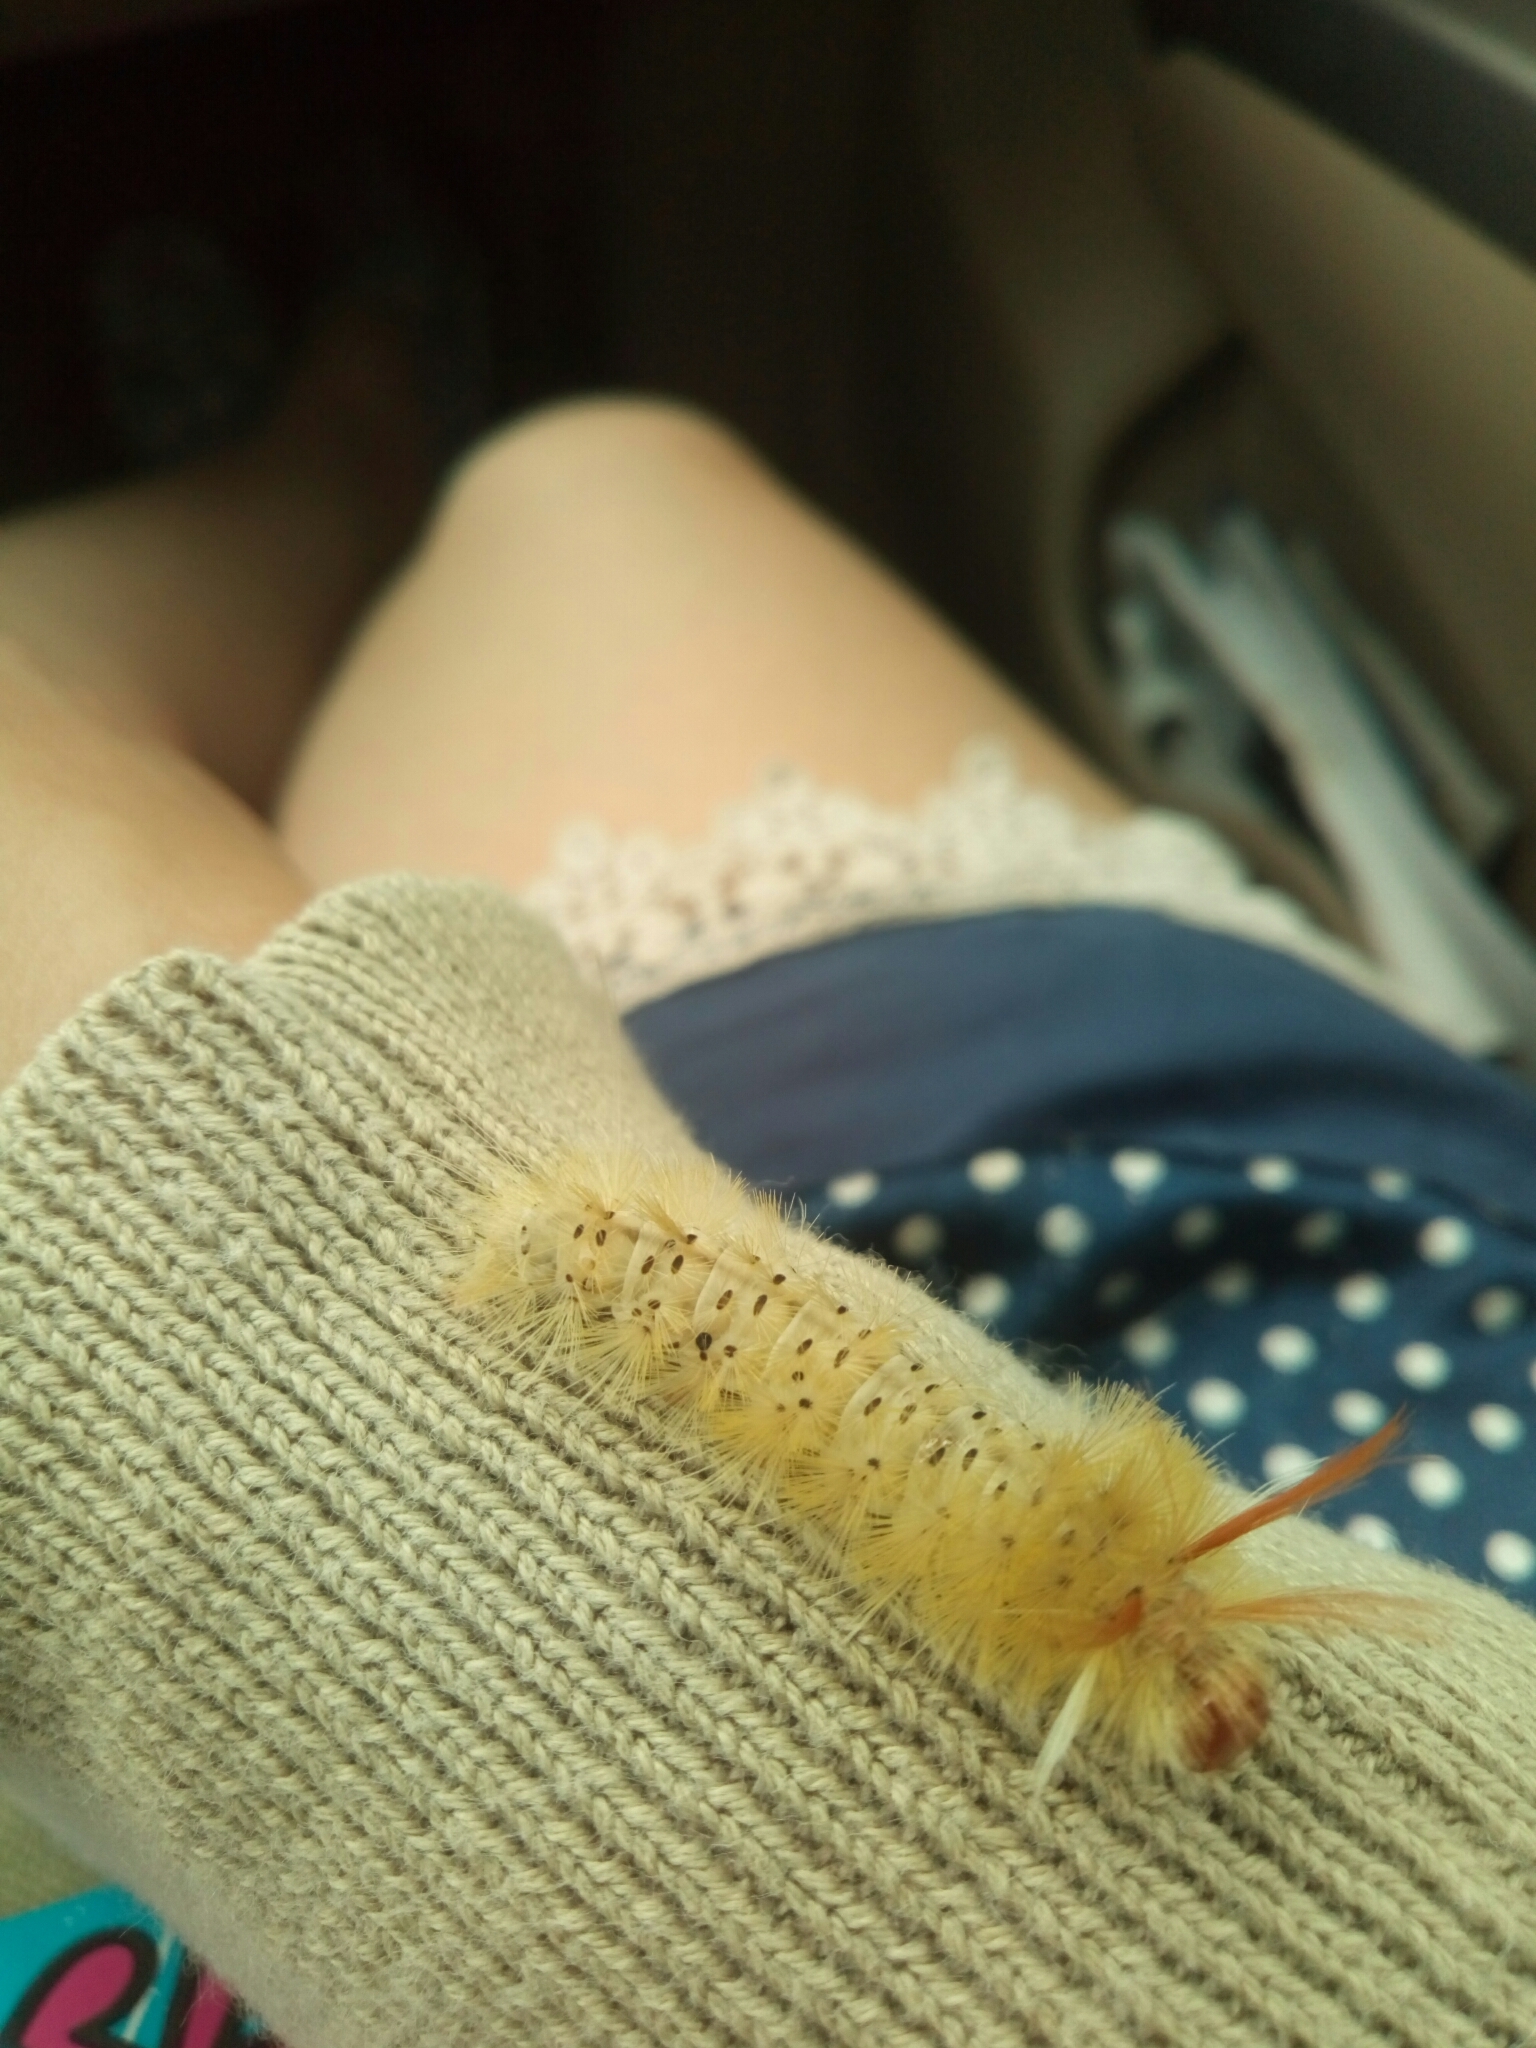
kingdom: Animalia
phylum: Arthropoda
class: Insecta
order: Lepidoptera
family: Erebidae
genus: Halysidota
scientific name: Halysidota harrisii
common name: Sycamore tussock moth
